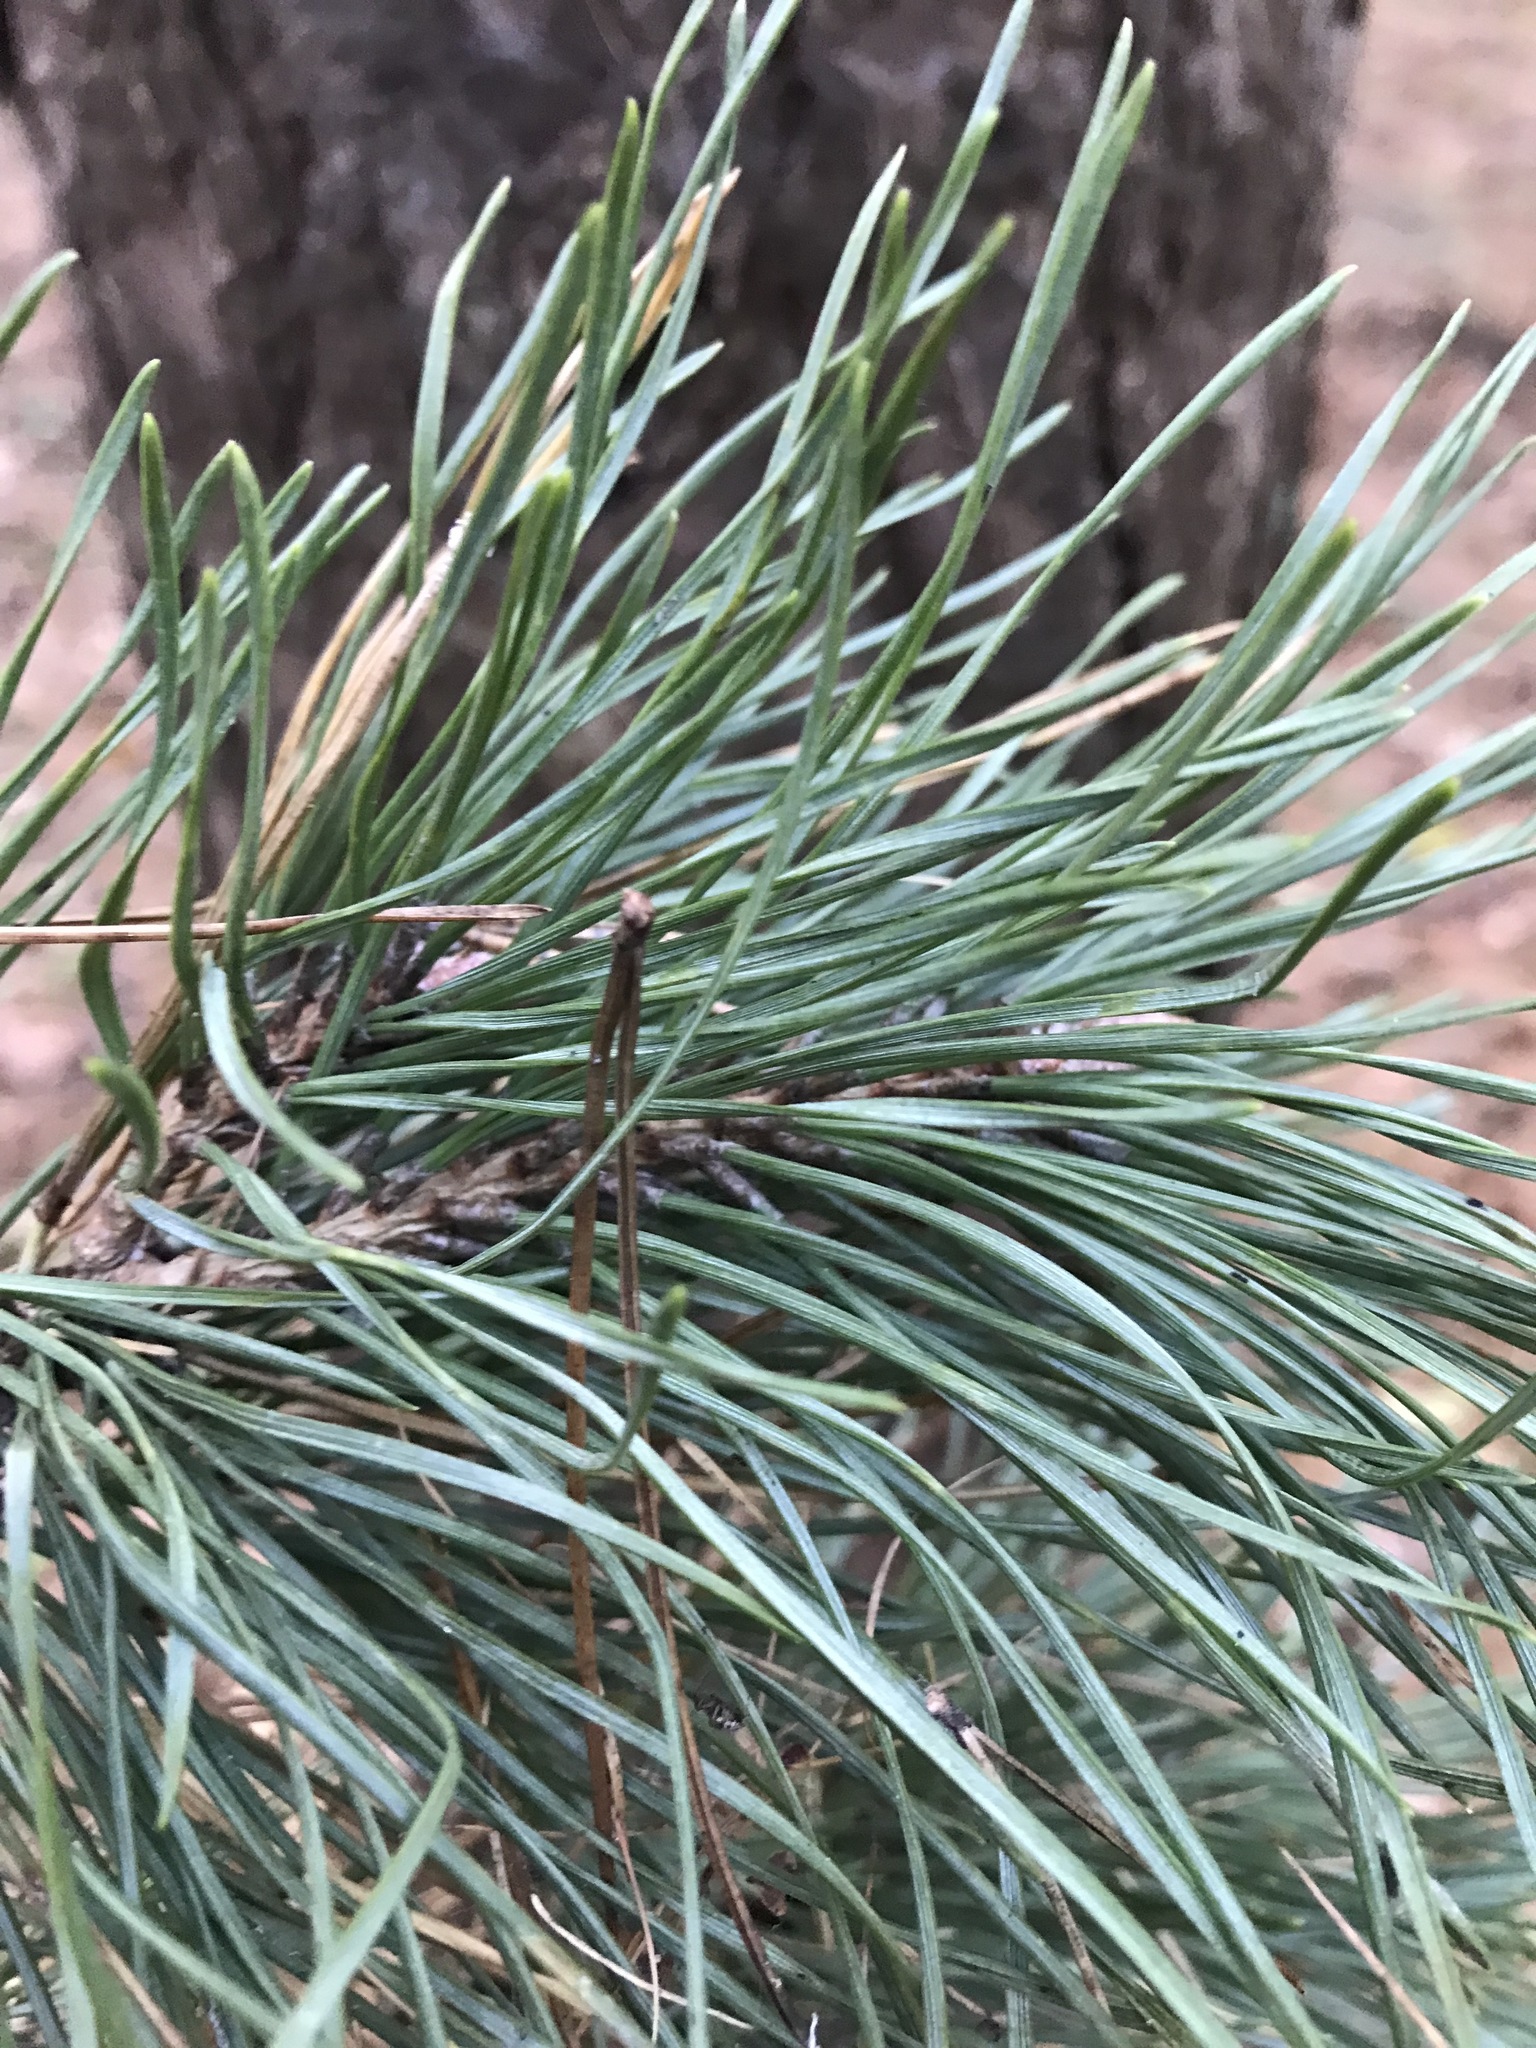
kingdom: Plantae
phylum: Tracheophyta
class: Pinopsida
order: Pinales
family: Pinaceae
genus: Pinus
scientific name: Pinus sylvestris
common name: Scots pine
